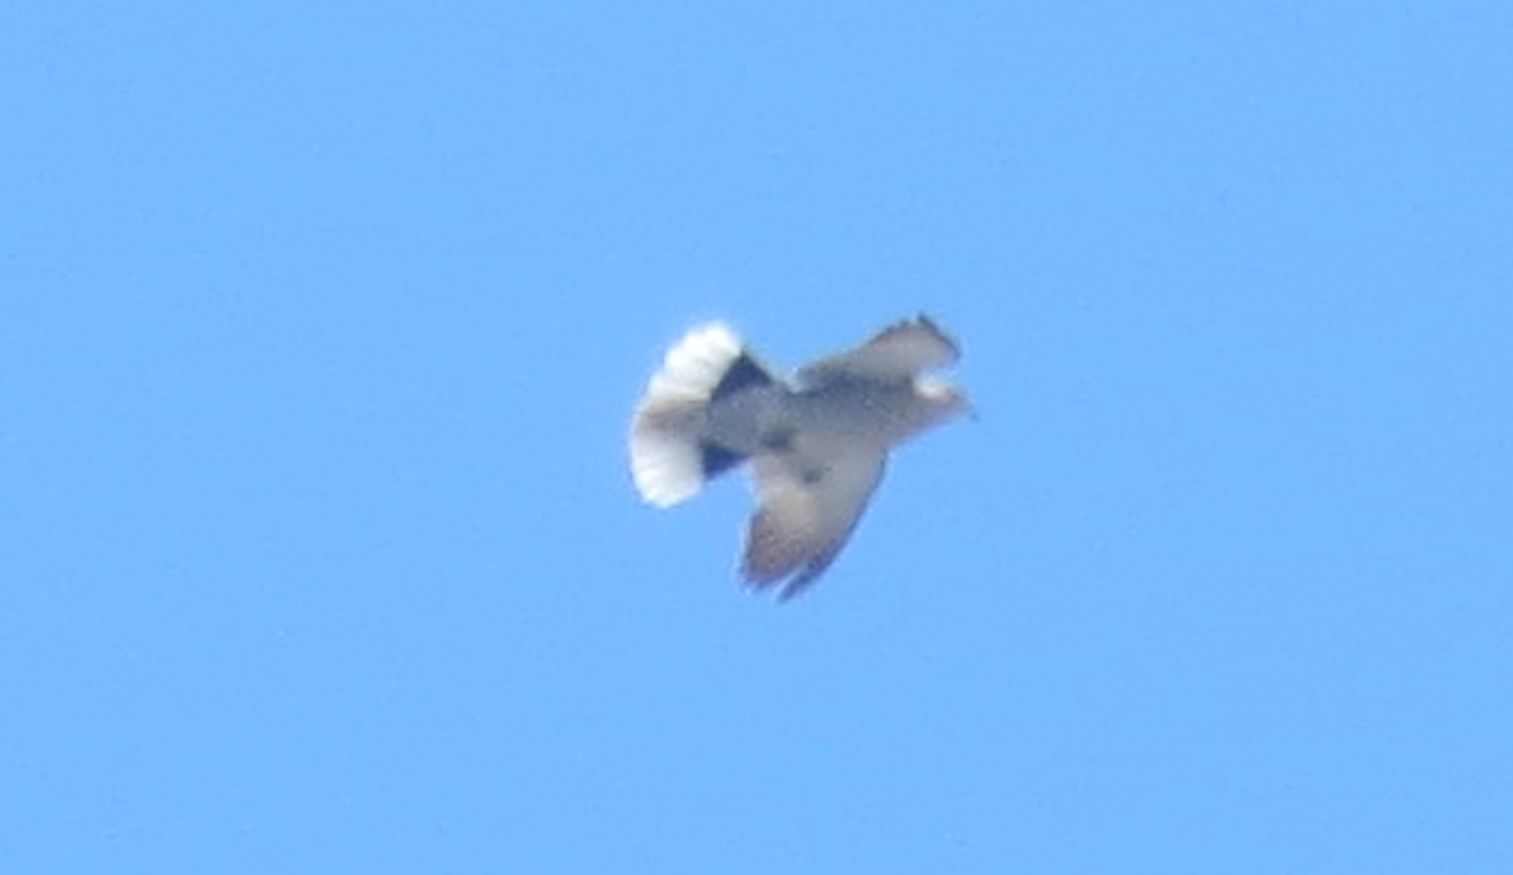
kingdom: Animalia
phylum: Chordata
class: Aves
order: Columbiformes
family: Columbidae
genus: Streptopelia
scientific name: Streptopelia decaocto
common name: Eurasian collared dove
